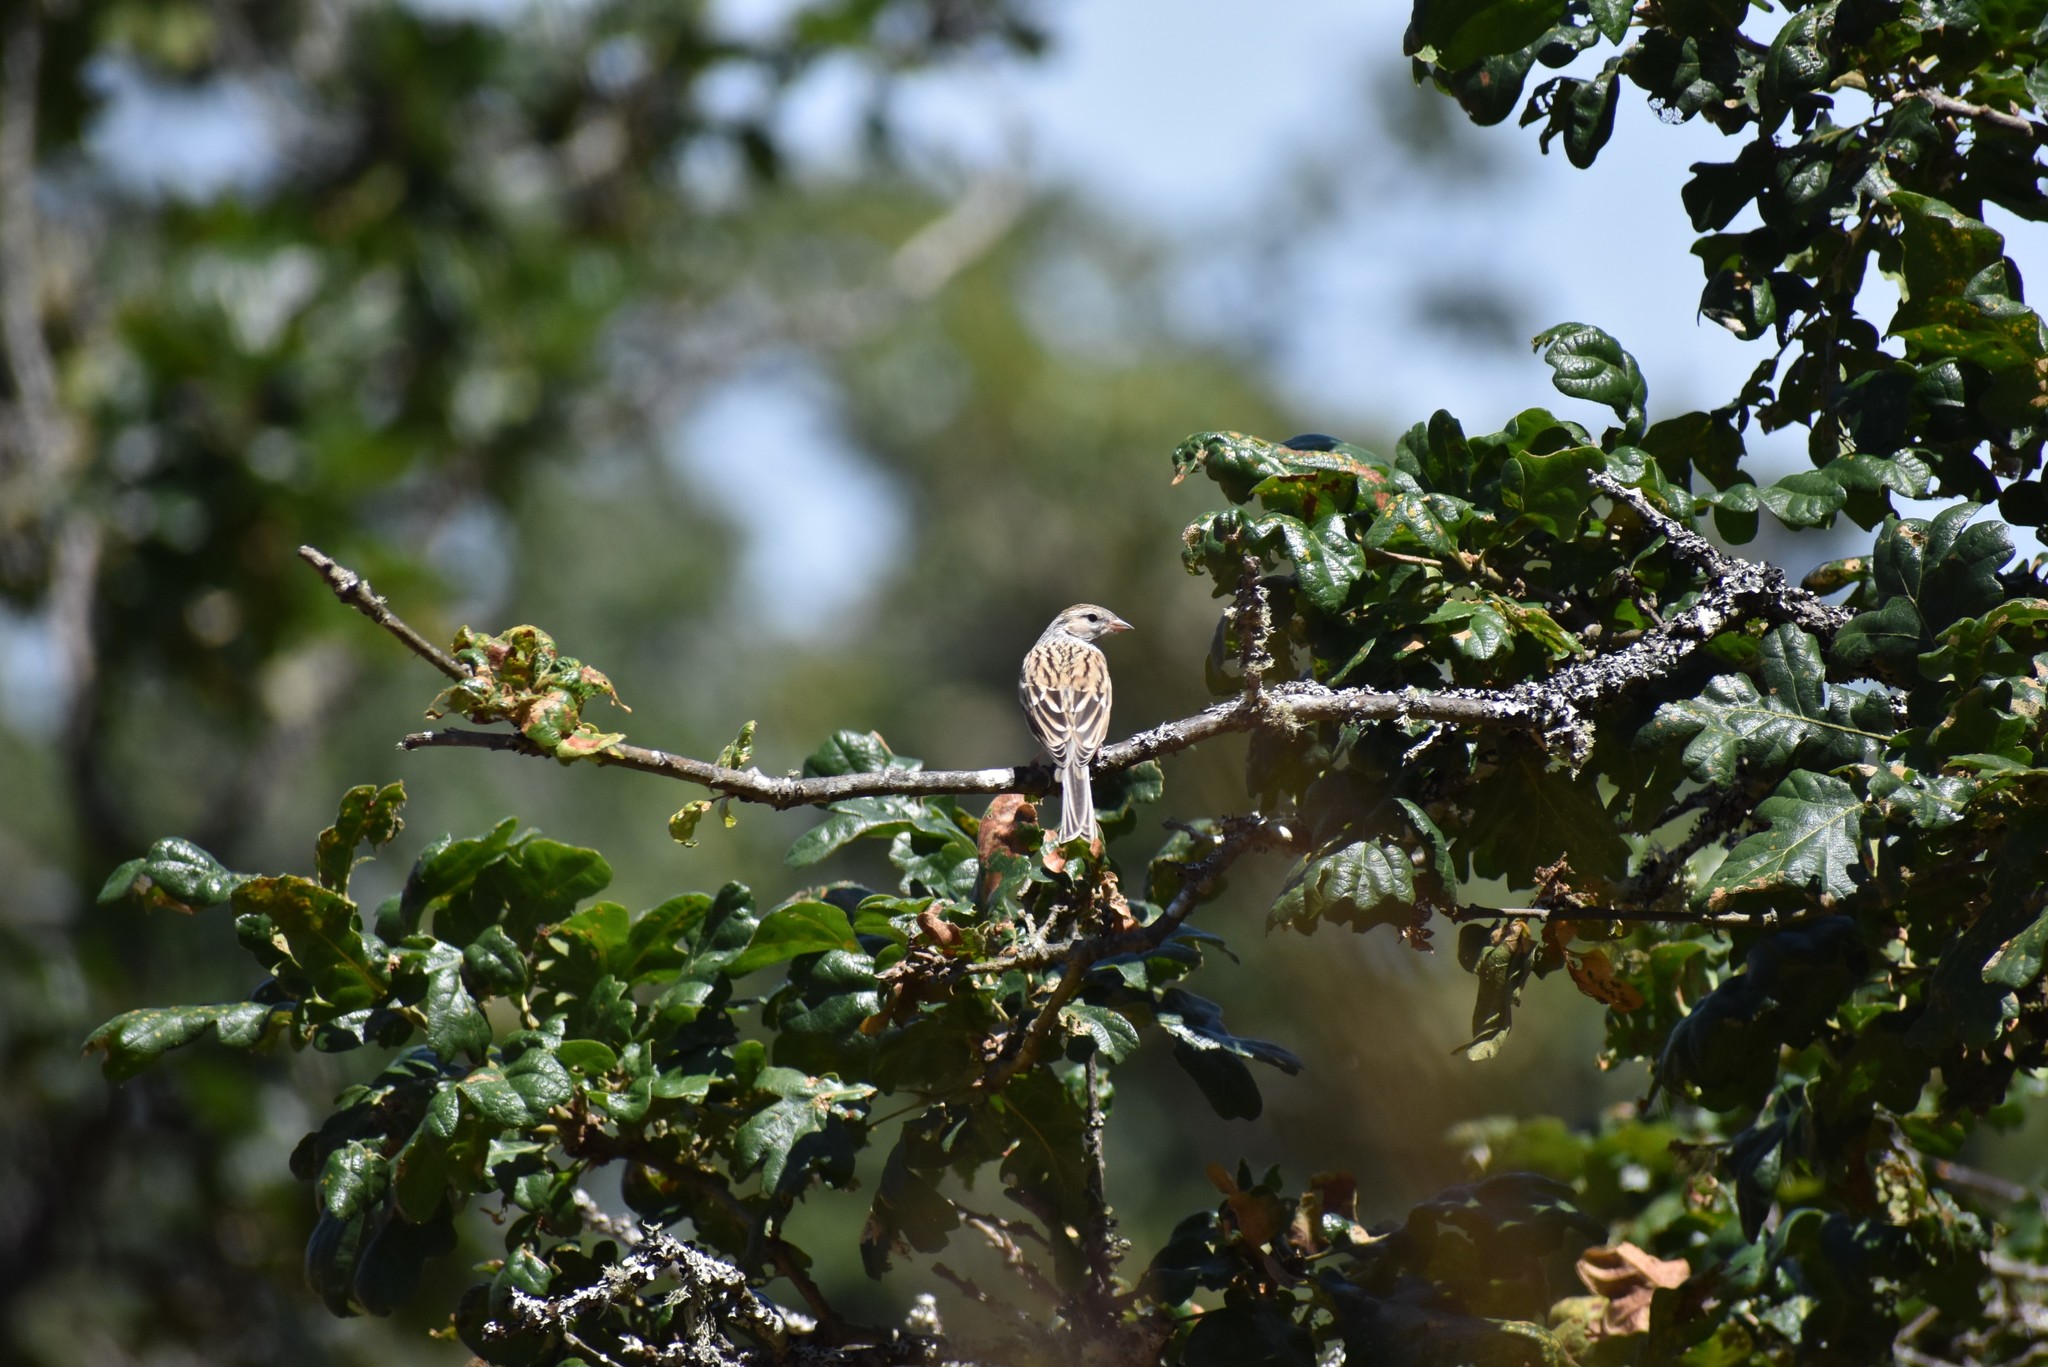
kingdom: Animalia
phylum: Chordata
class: Aves
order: Passeriformes
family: Passeridae
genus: Passer
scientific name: Passer domesticus
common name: House sparrow
